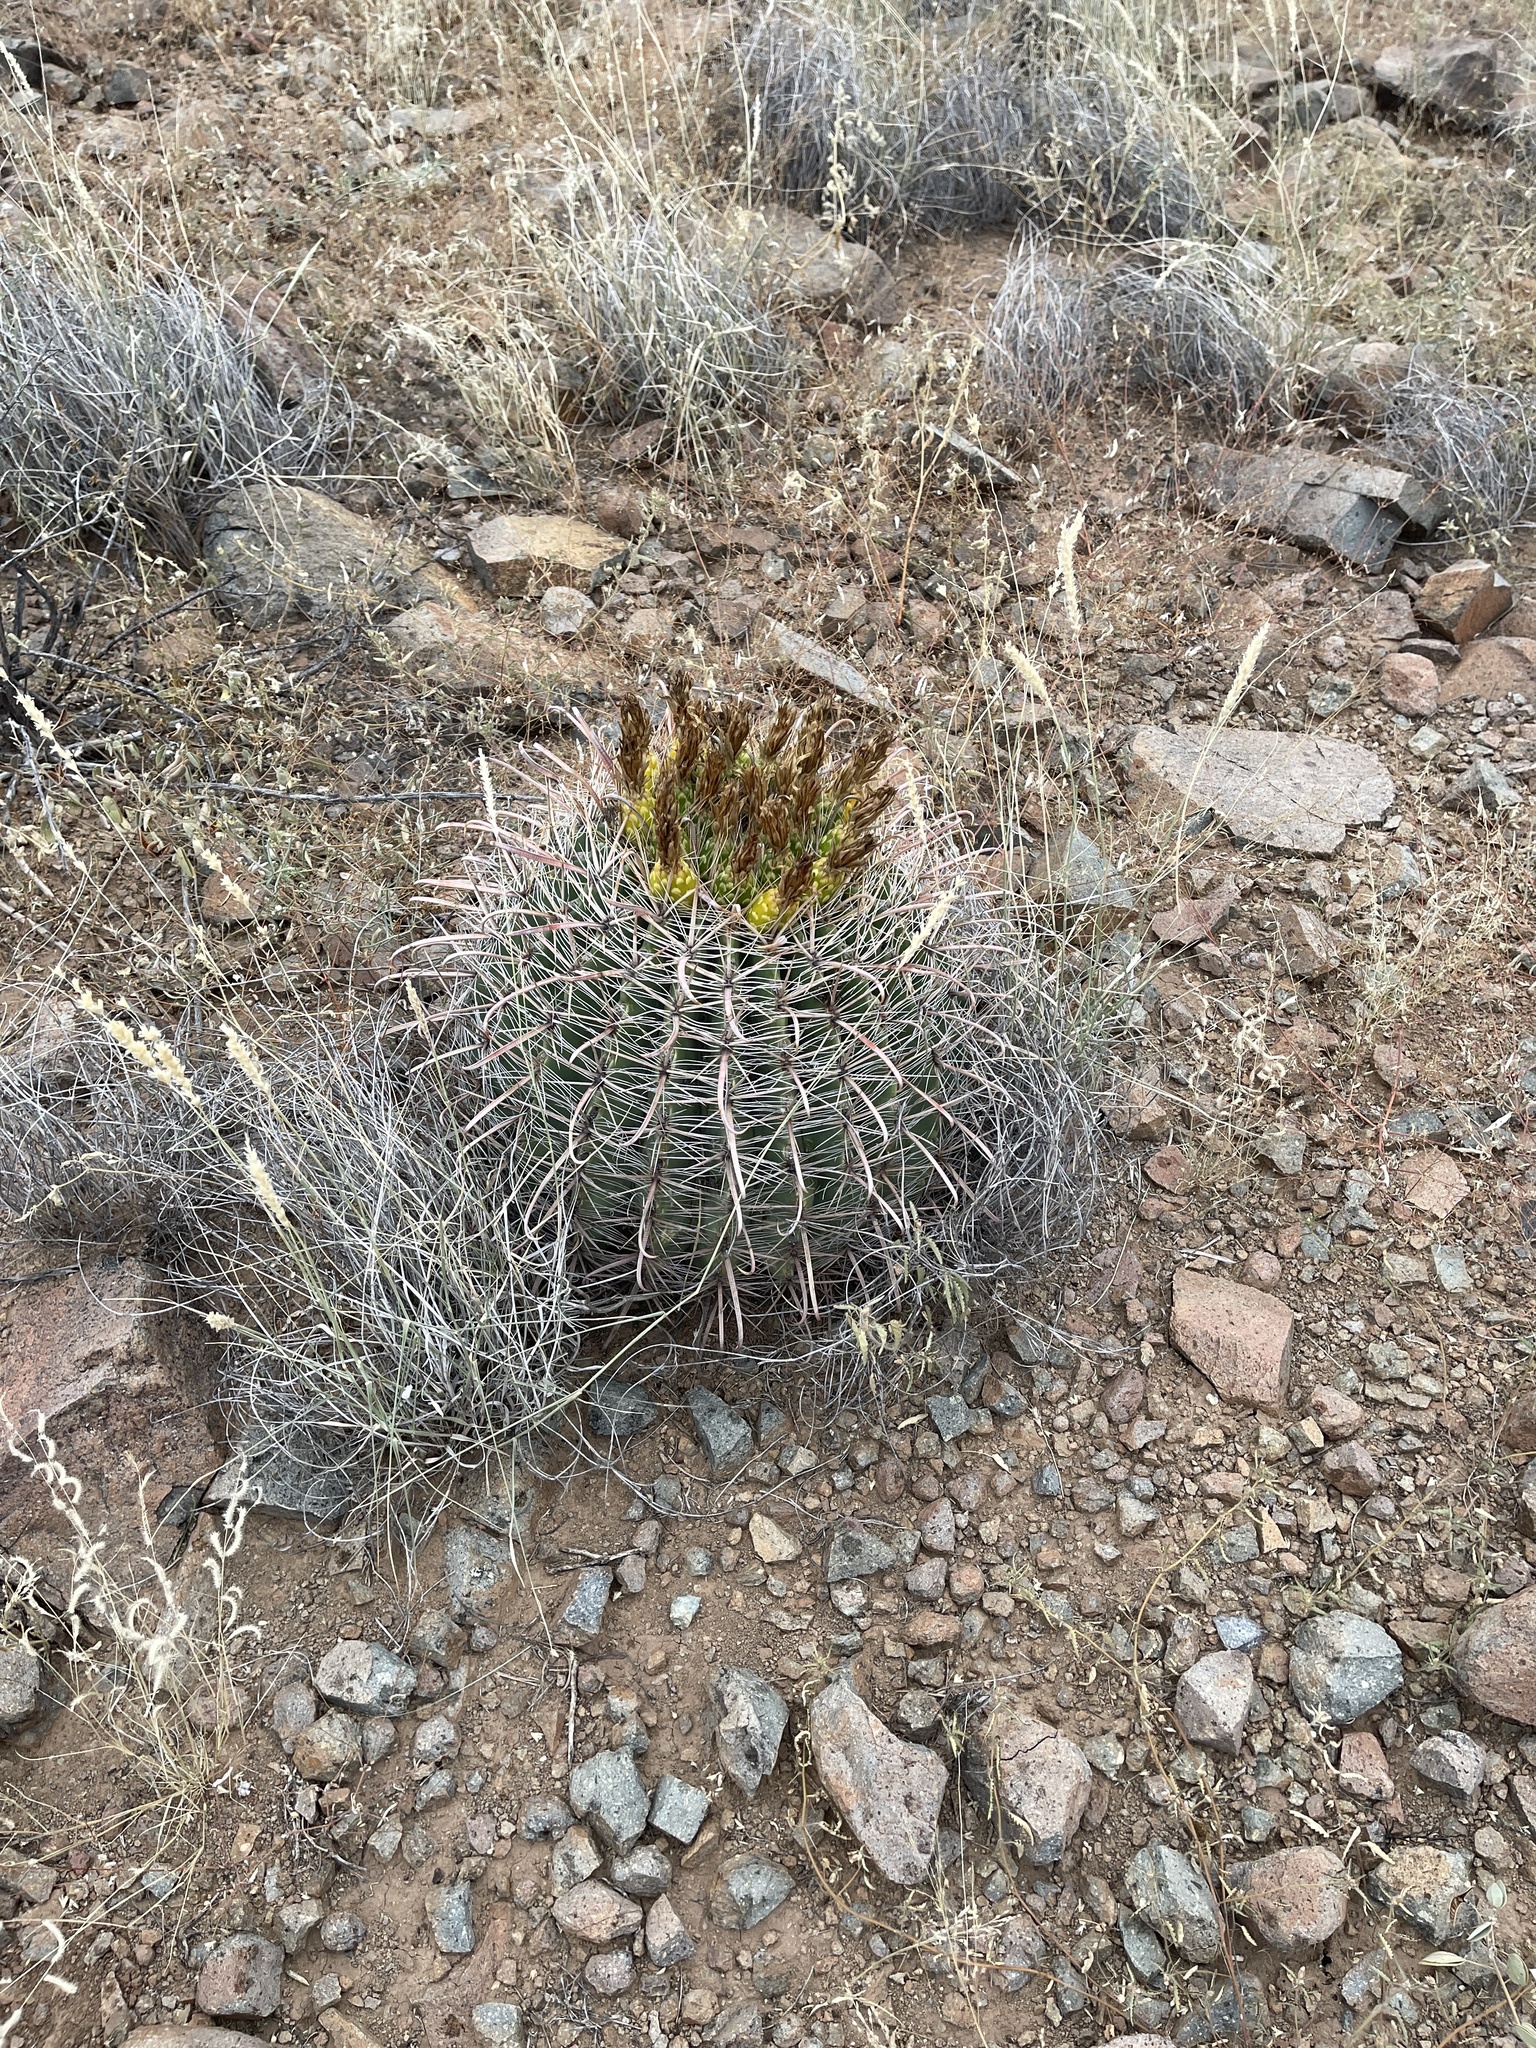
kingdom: Plantae
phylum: Tracheophyta
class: Magnoliopsida
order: Caryophyllales
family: Cactaceae
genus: Ferocactus
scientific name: Ferocactus wislizeni
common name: Candy barrel cactus
